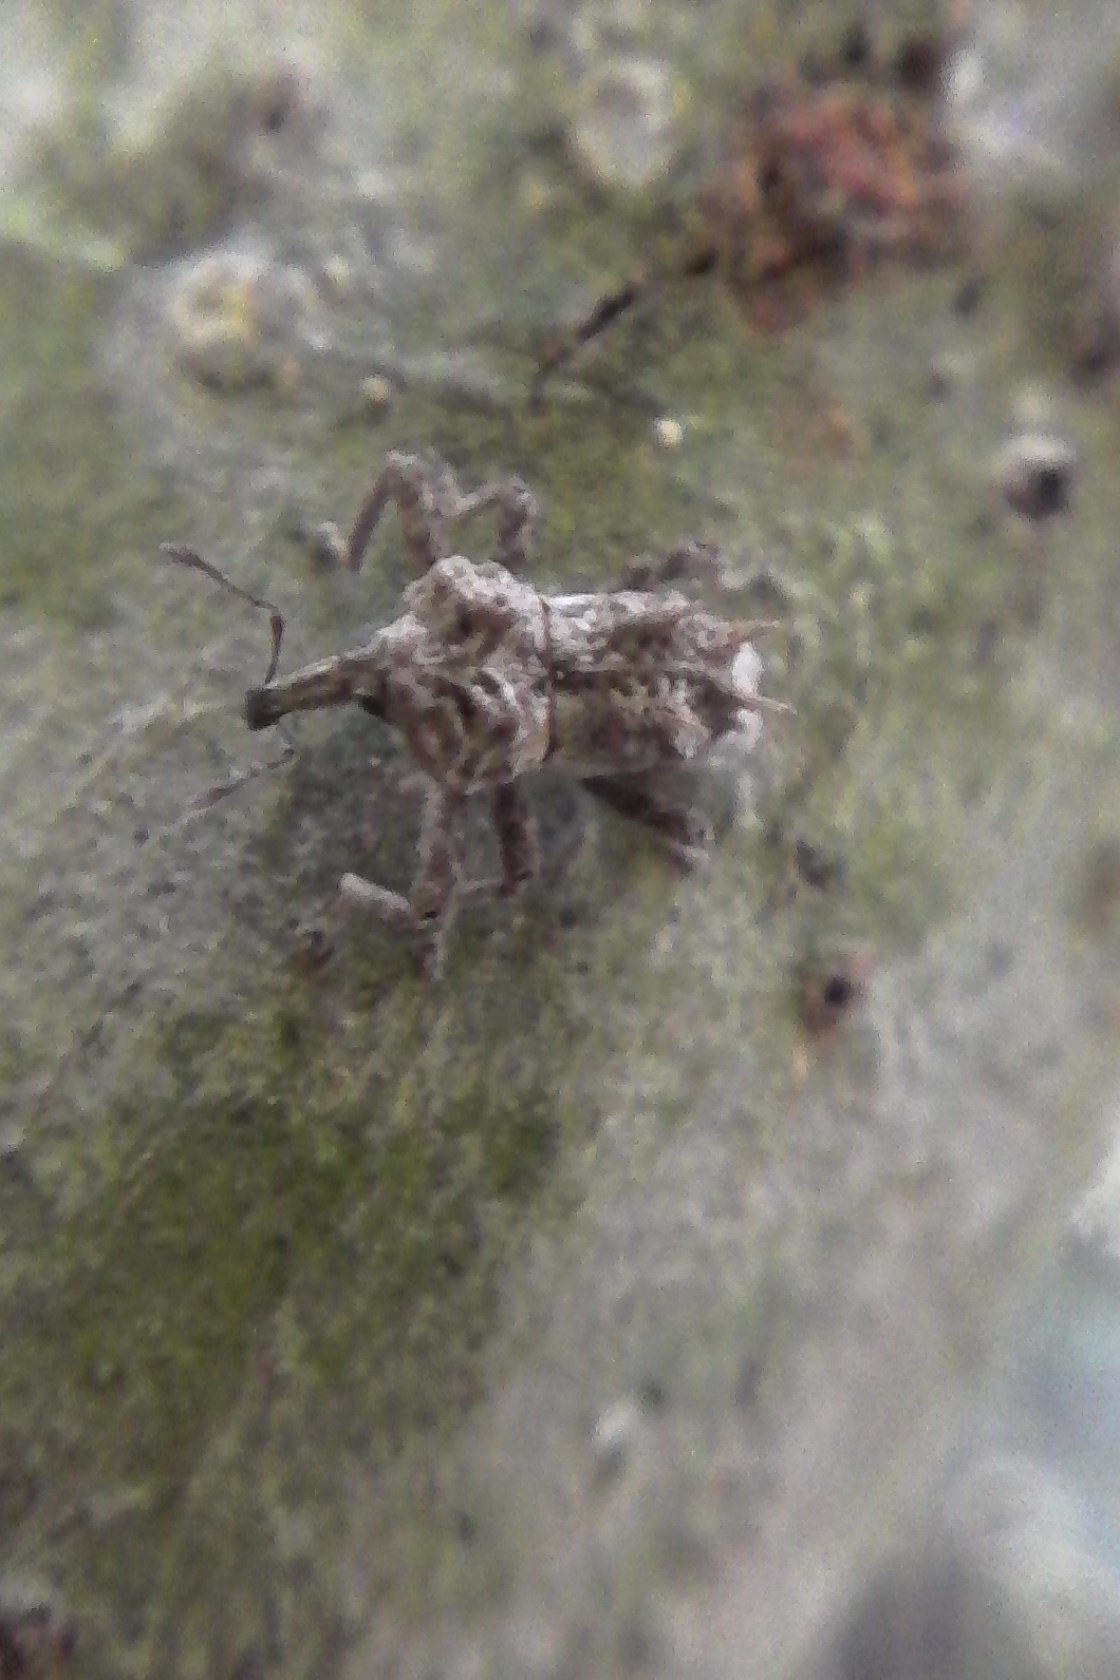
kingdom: Animalia
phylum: Arthropoda
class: Insecta
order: Coleoptera
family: Curculionidae
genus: Indecentia
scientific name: Indecentia nubila
